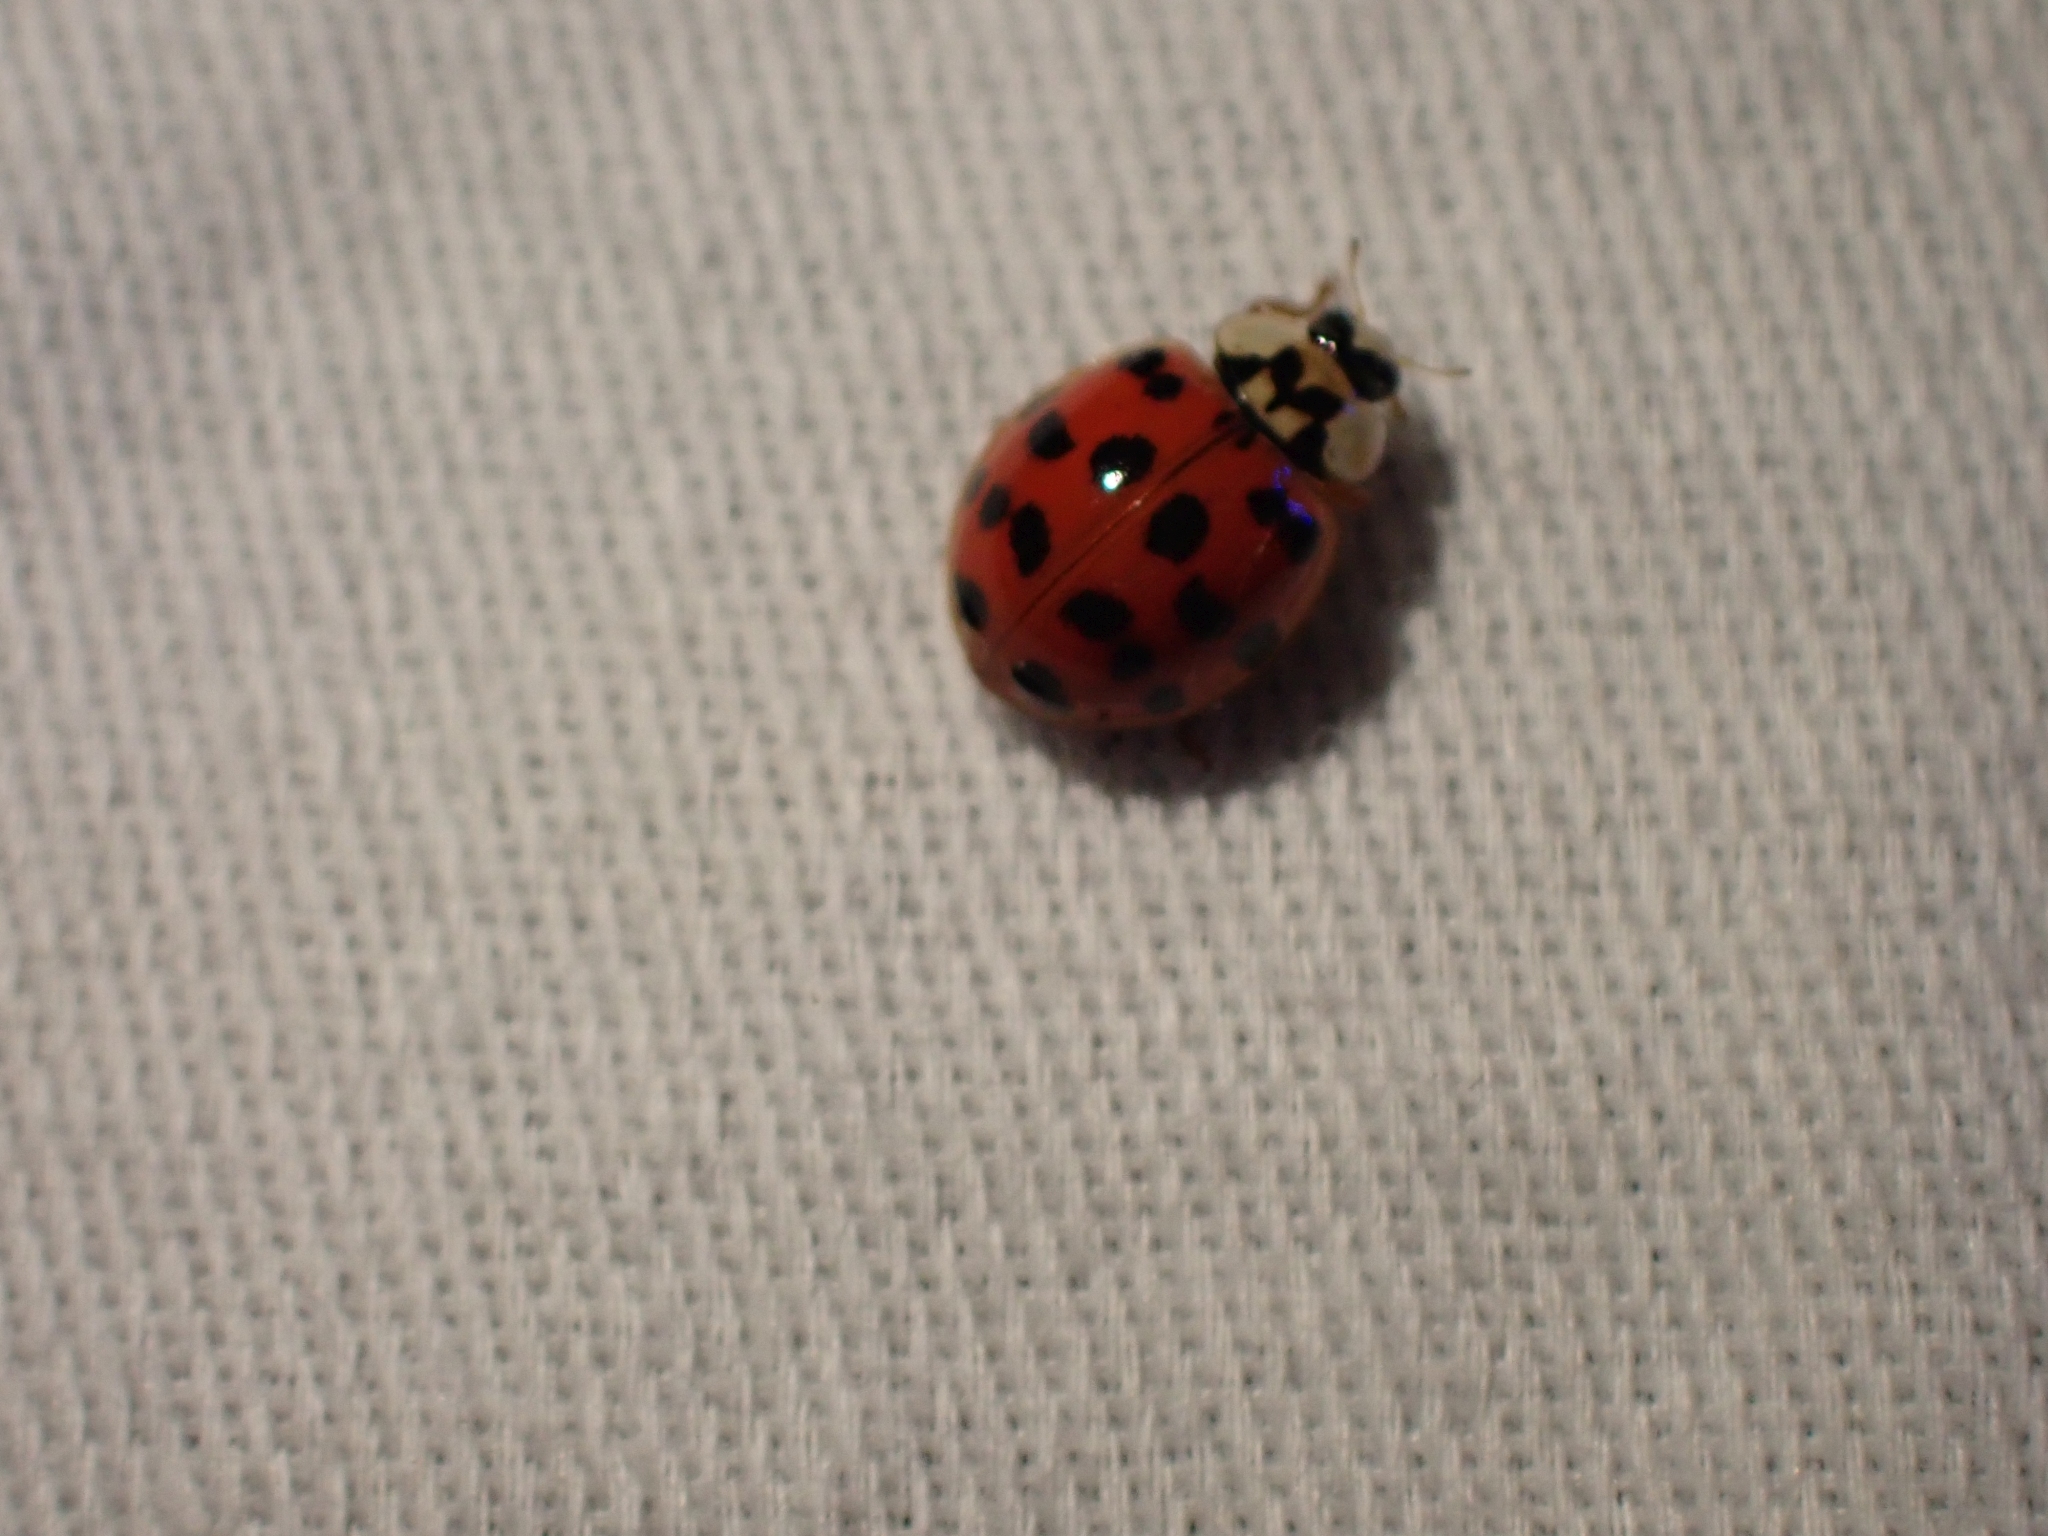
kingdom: Animalia
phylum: Arthropoda
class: Insecta
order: Coleoptera
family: Coccinellidae
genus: Harmonia
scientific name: Harmonia axyridis
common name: Harlequin ladybird
